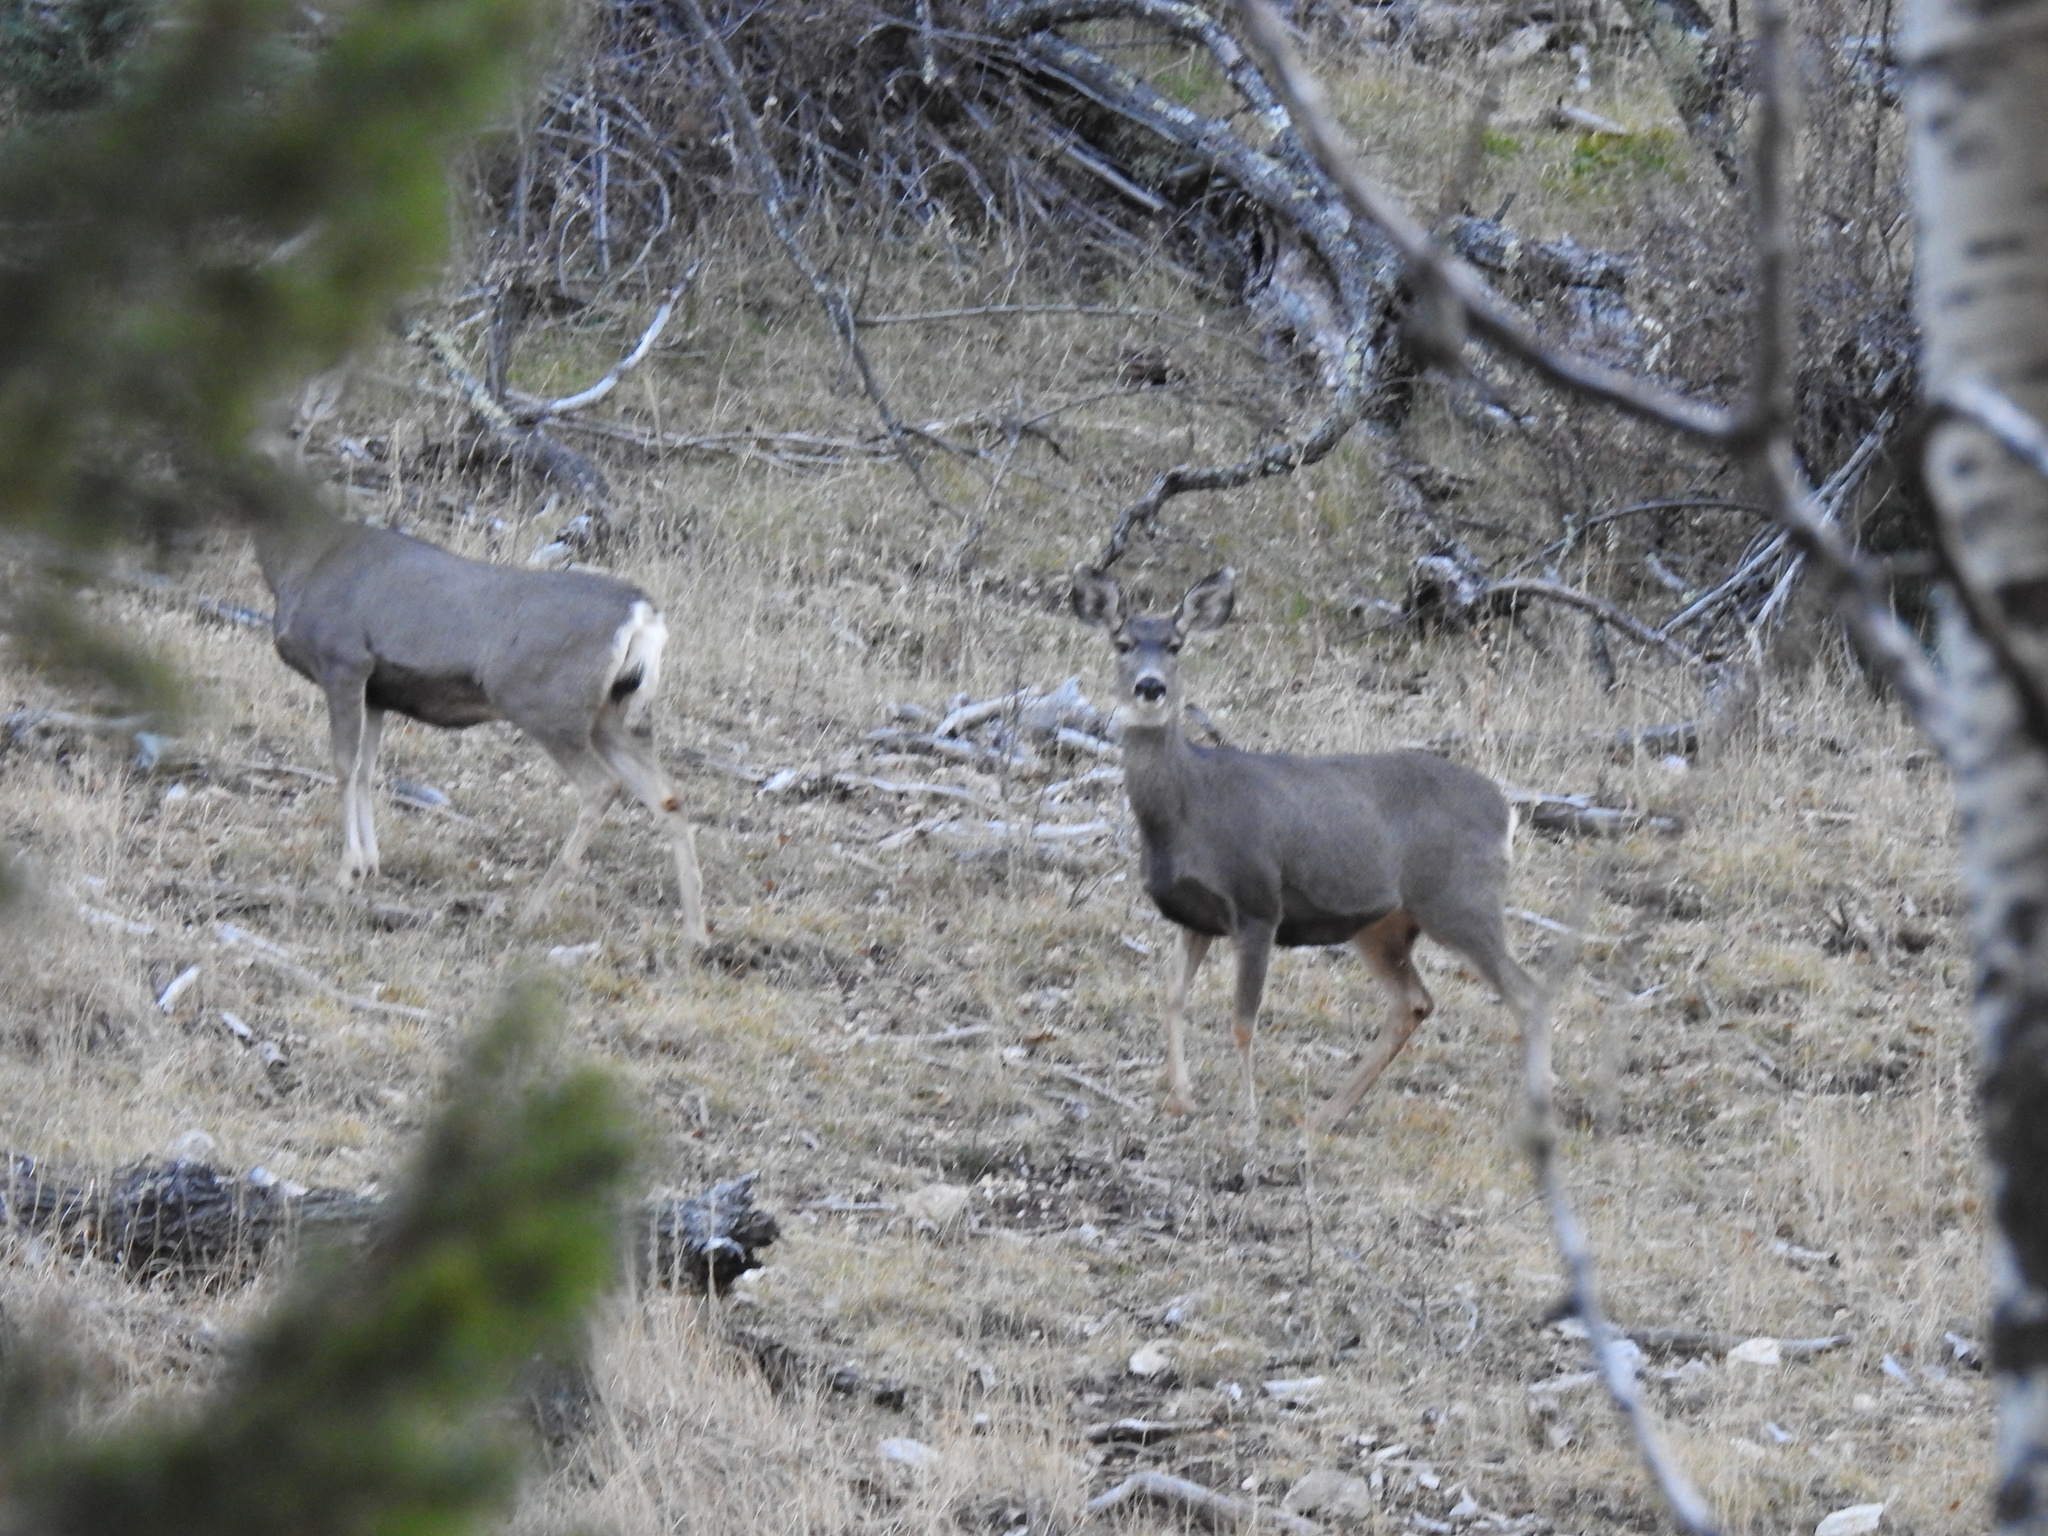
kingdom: Animalia
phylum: Chordata
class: Mammalia
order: Artiodactyla
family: Cervidae
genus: Odocoileus
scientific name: Odocoileus hemionus
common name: Mule deer
